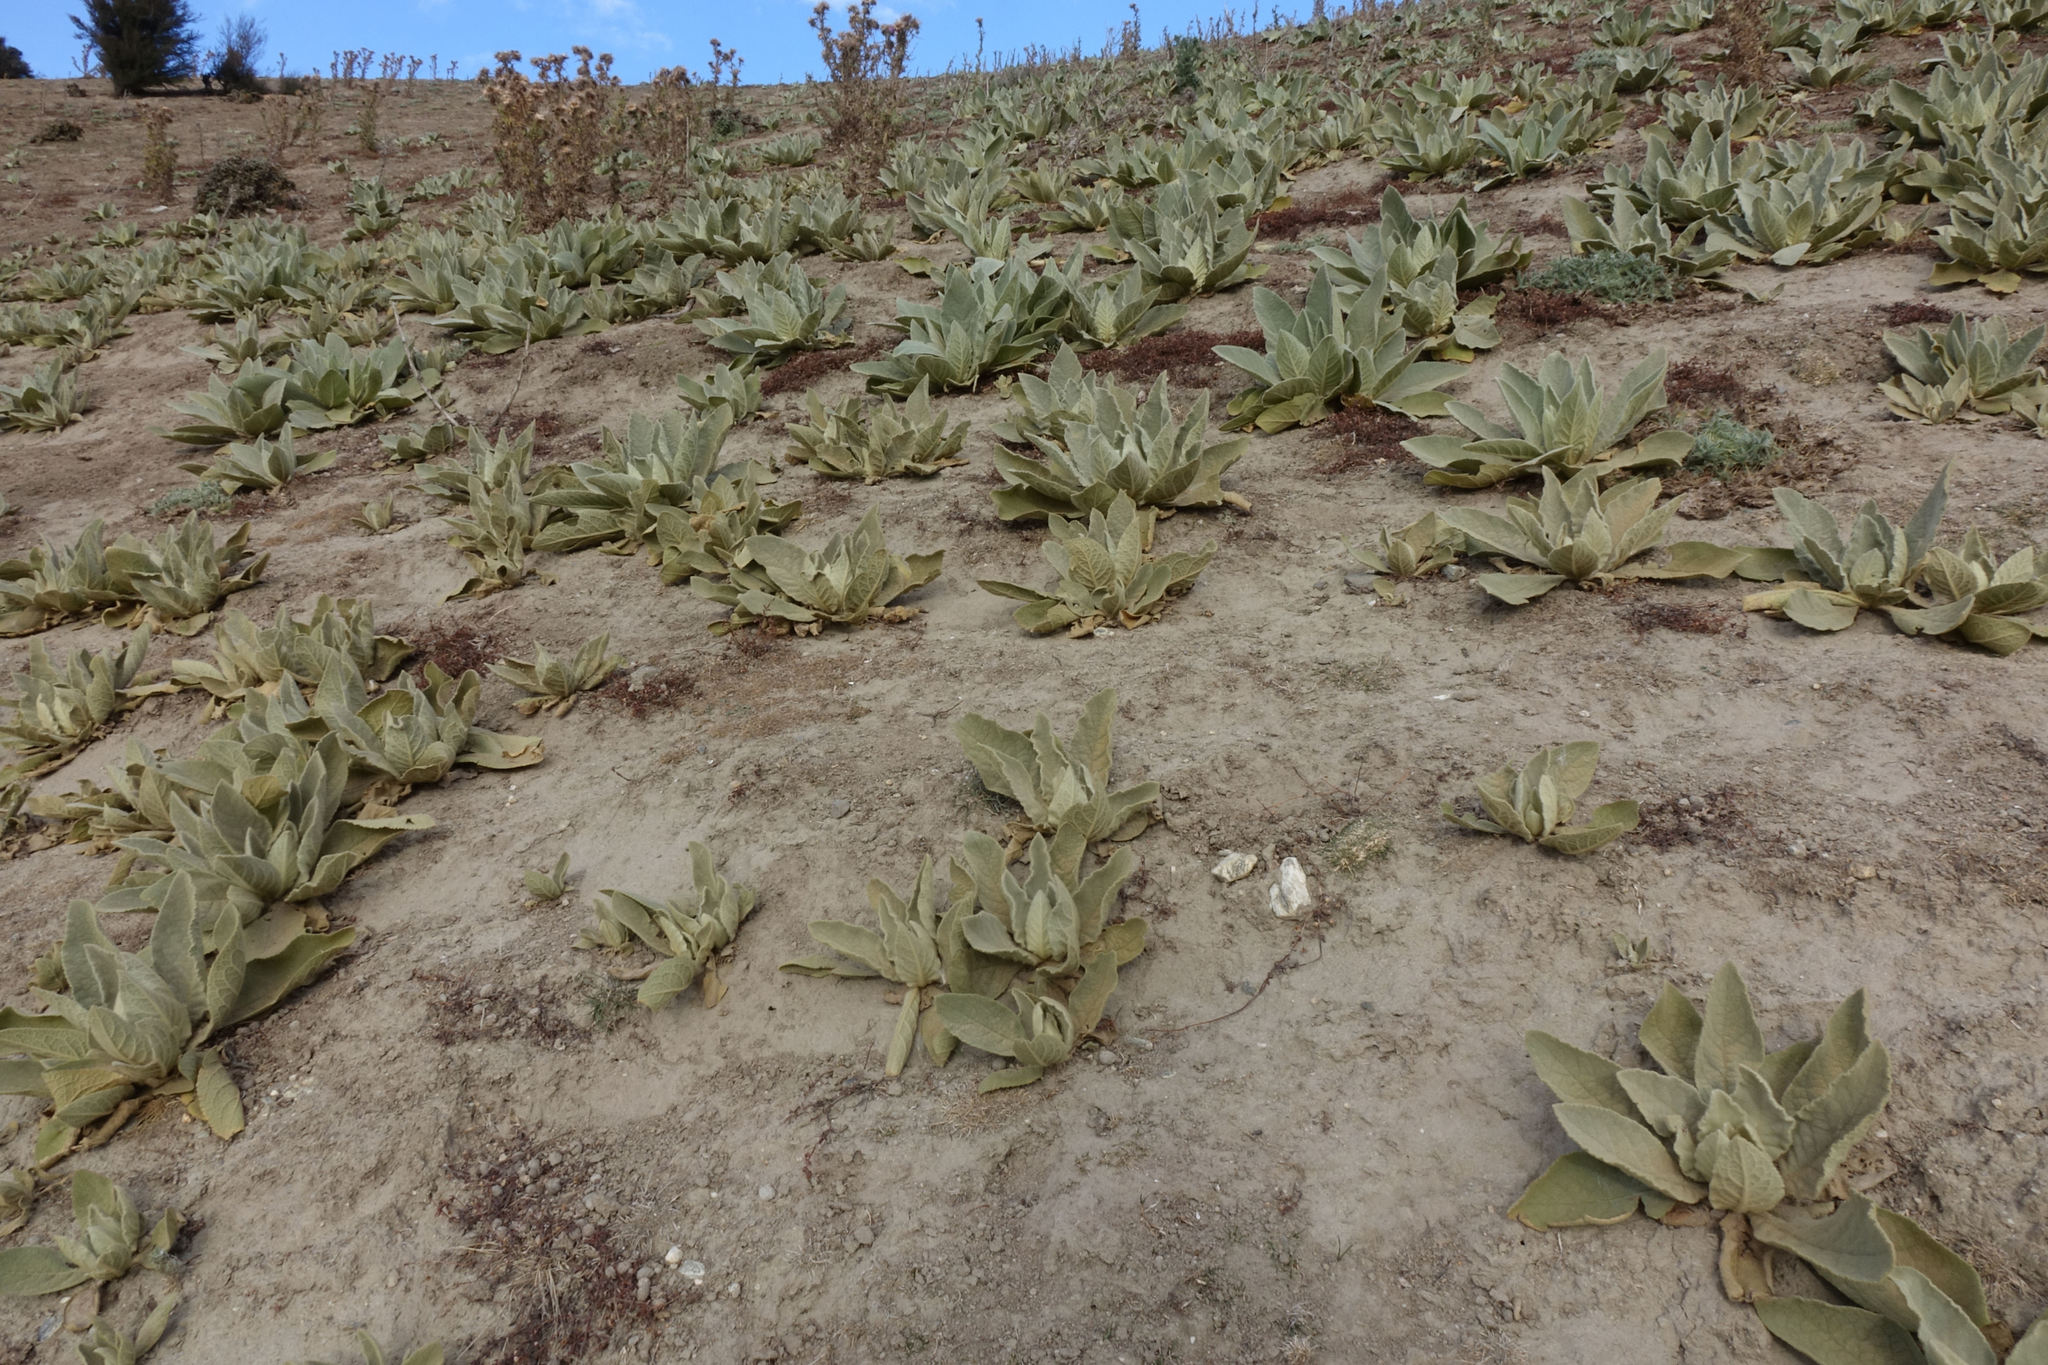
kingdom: Plantae
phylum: Tracheophyta
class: Magnoliopsida
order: Lamiales
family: Scrophulariaceae
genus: Verbascum
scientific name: Verbascum thapsus
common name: Common mullein
